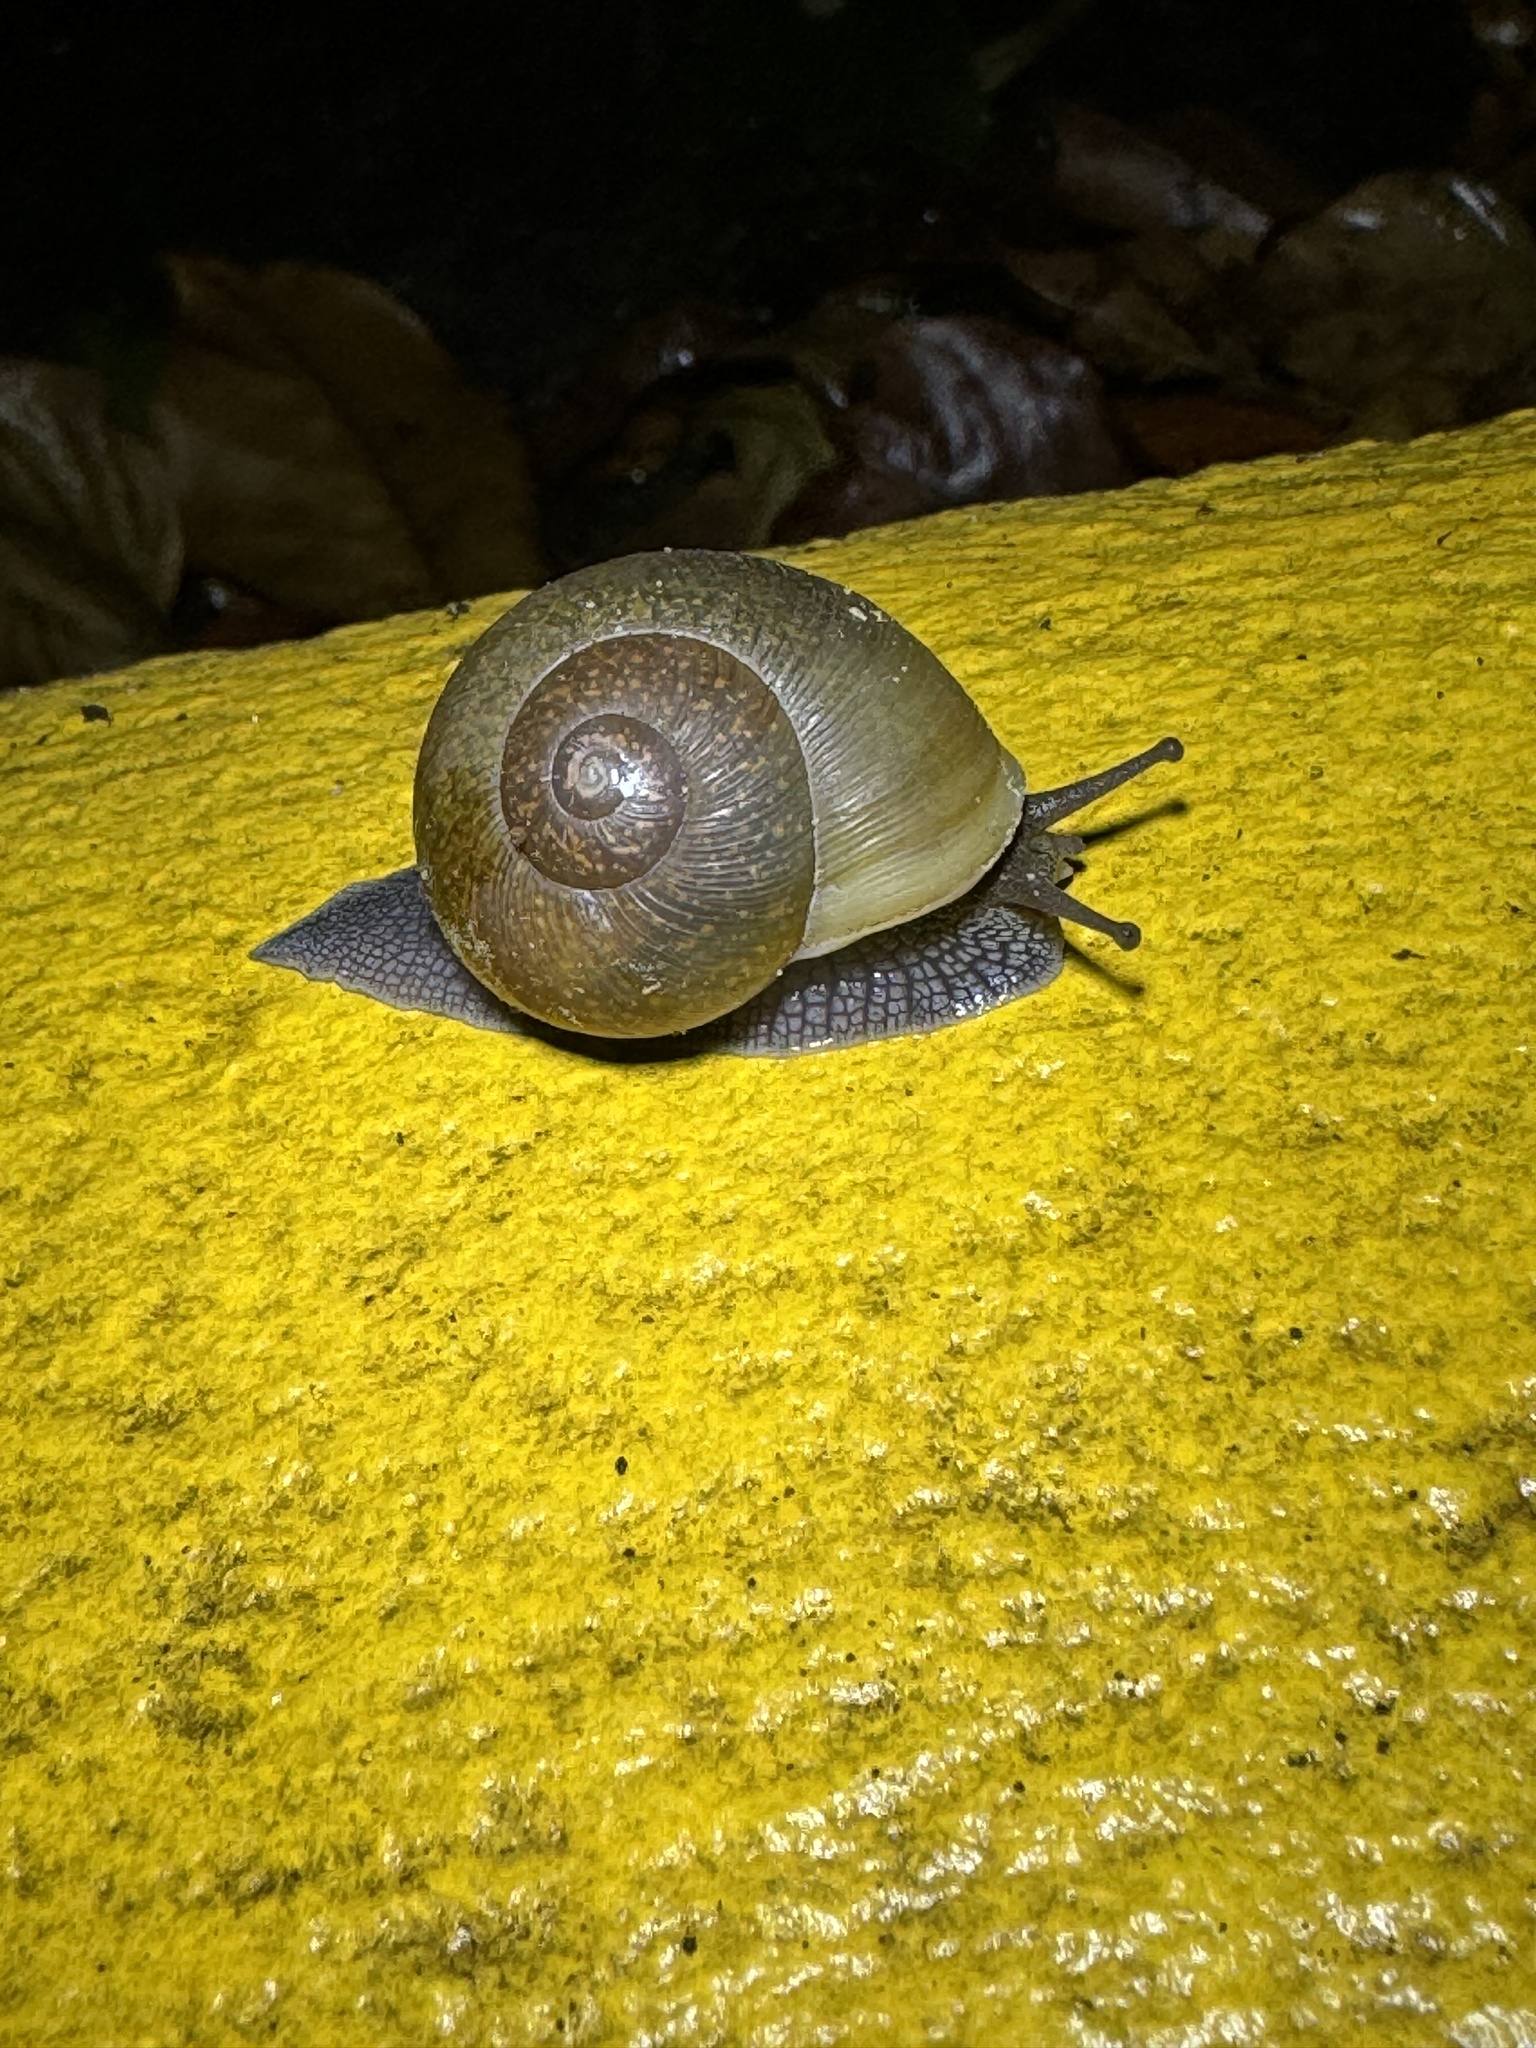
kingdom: Animalia
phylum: Mollusca
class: Gastropoda
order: Stylommatophora
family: Zachrysiidae
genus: Zachrysia
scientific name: Zachrysia provisoria
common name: Garden zachrysia
